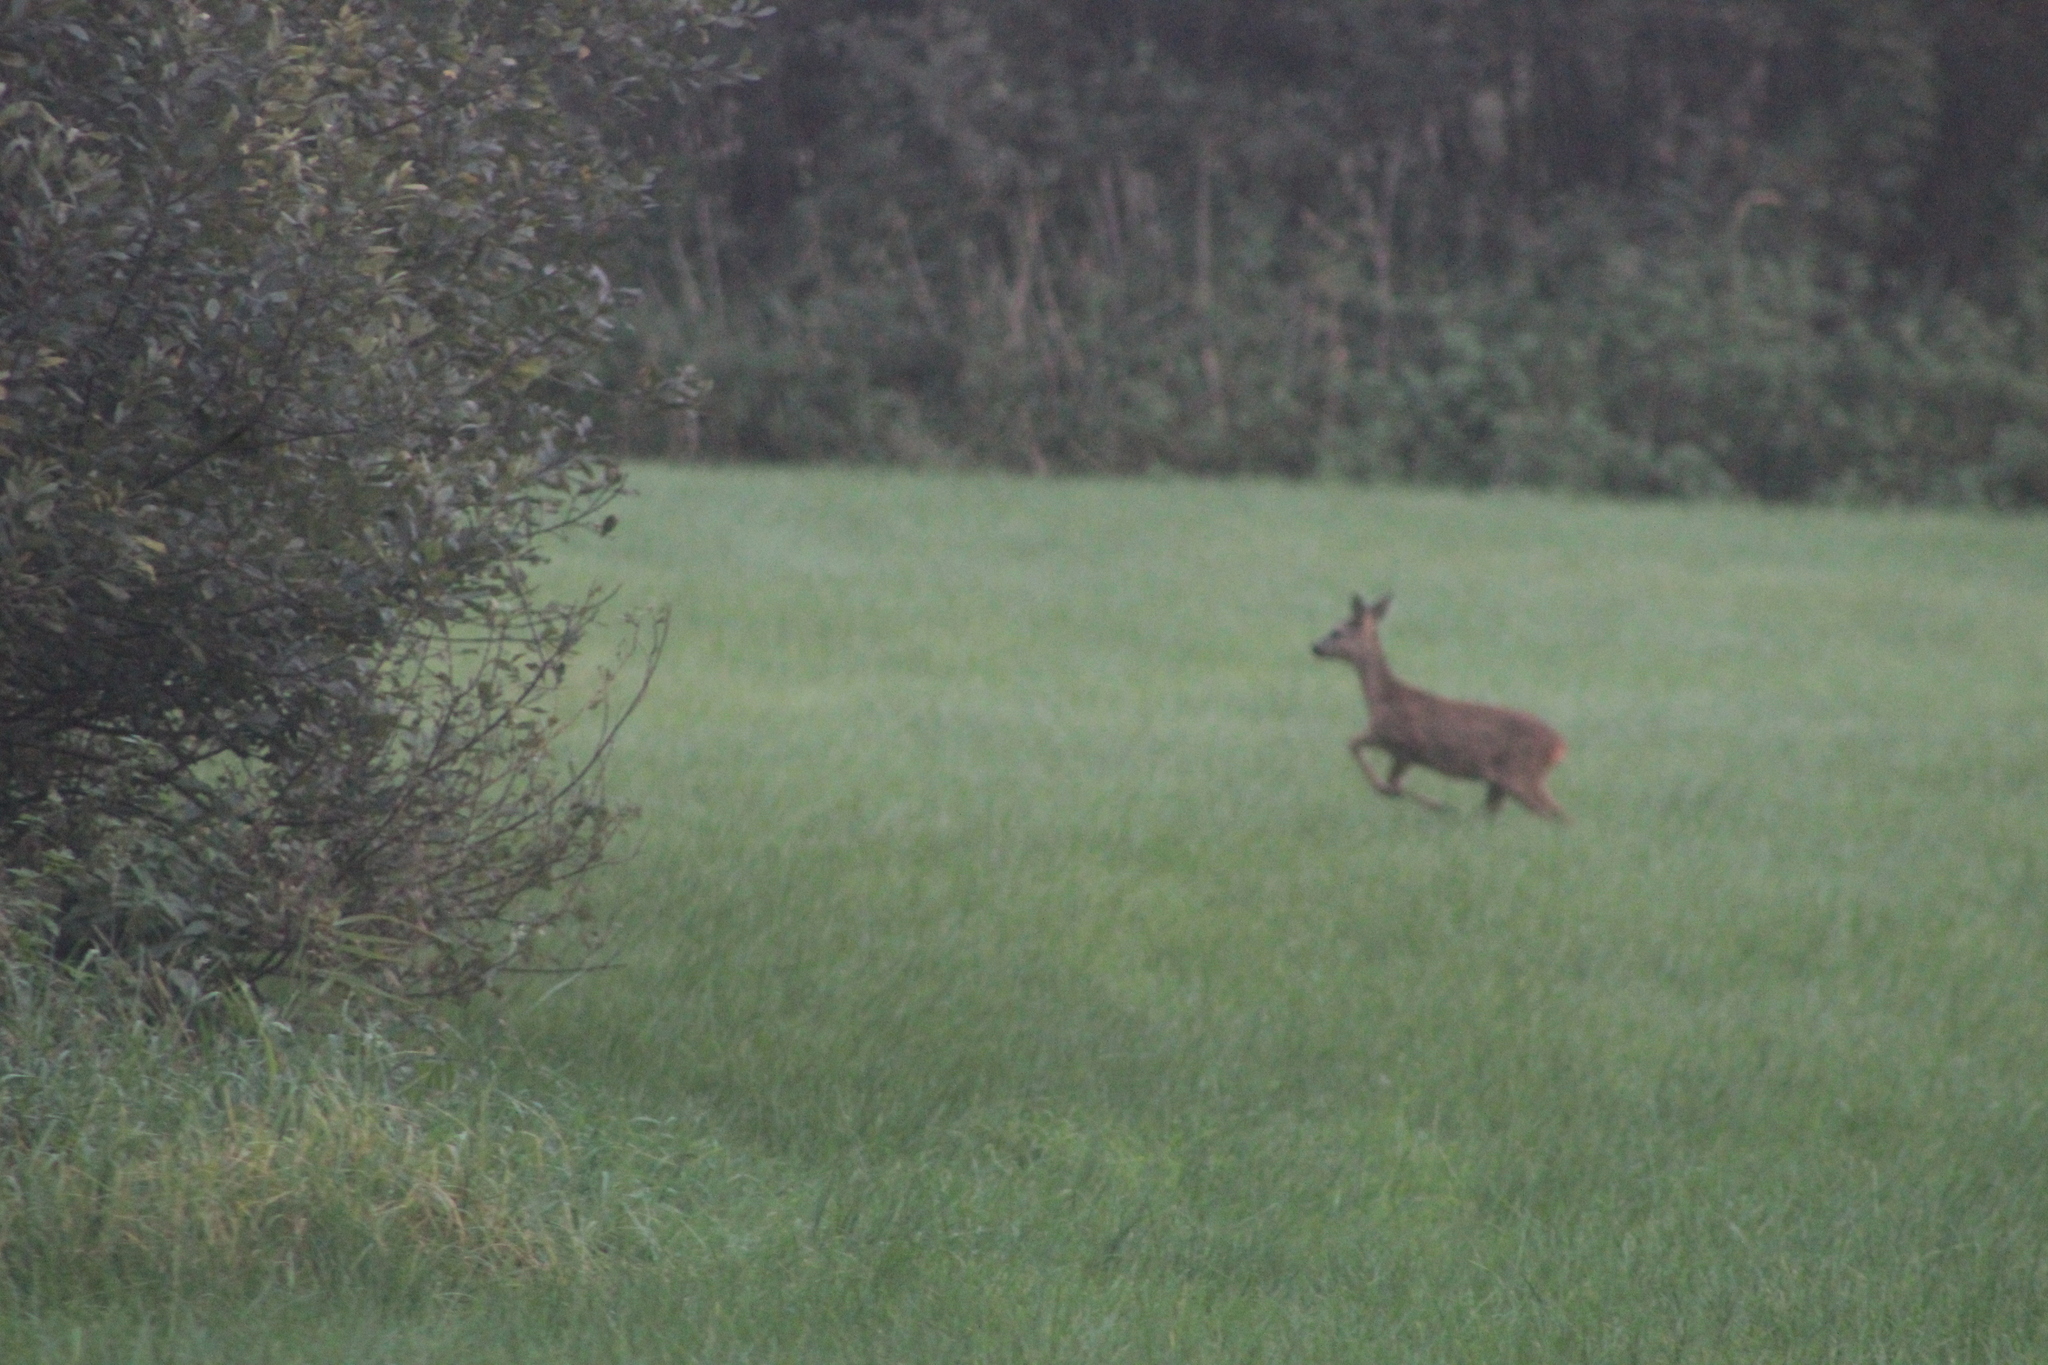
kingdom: Animalia
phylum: Chordata
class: Mammalia
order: Artiodactyla
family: Cervidae
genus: Capreolus
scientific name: Capreolus capreolus
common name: Western roe deer
